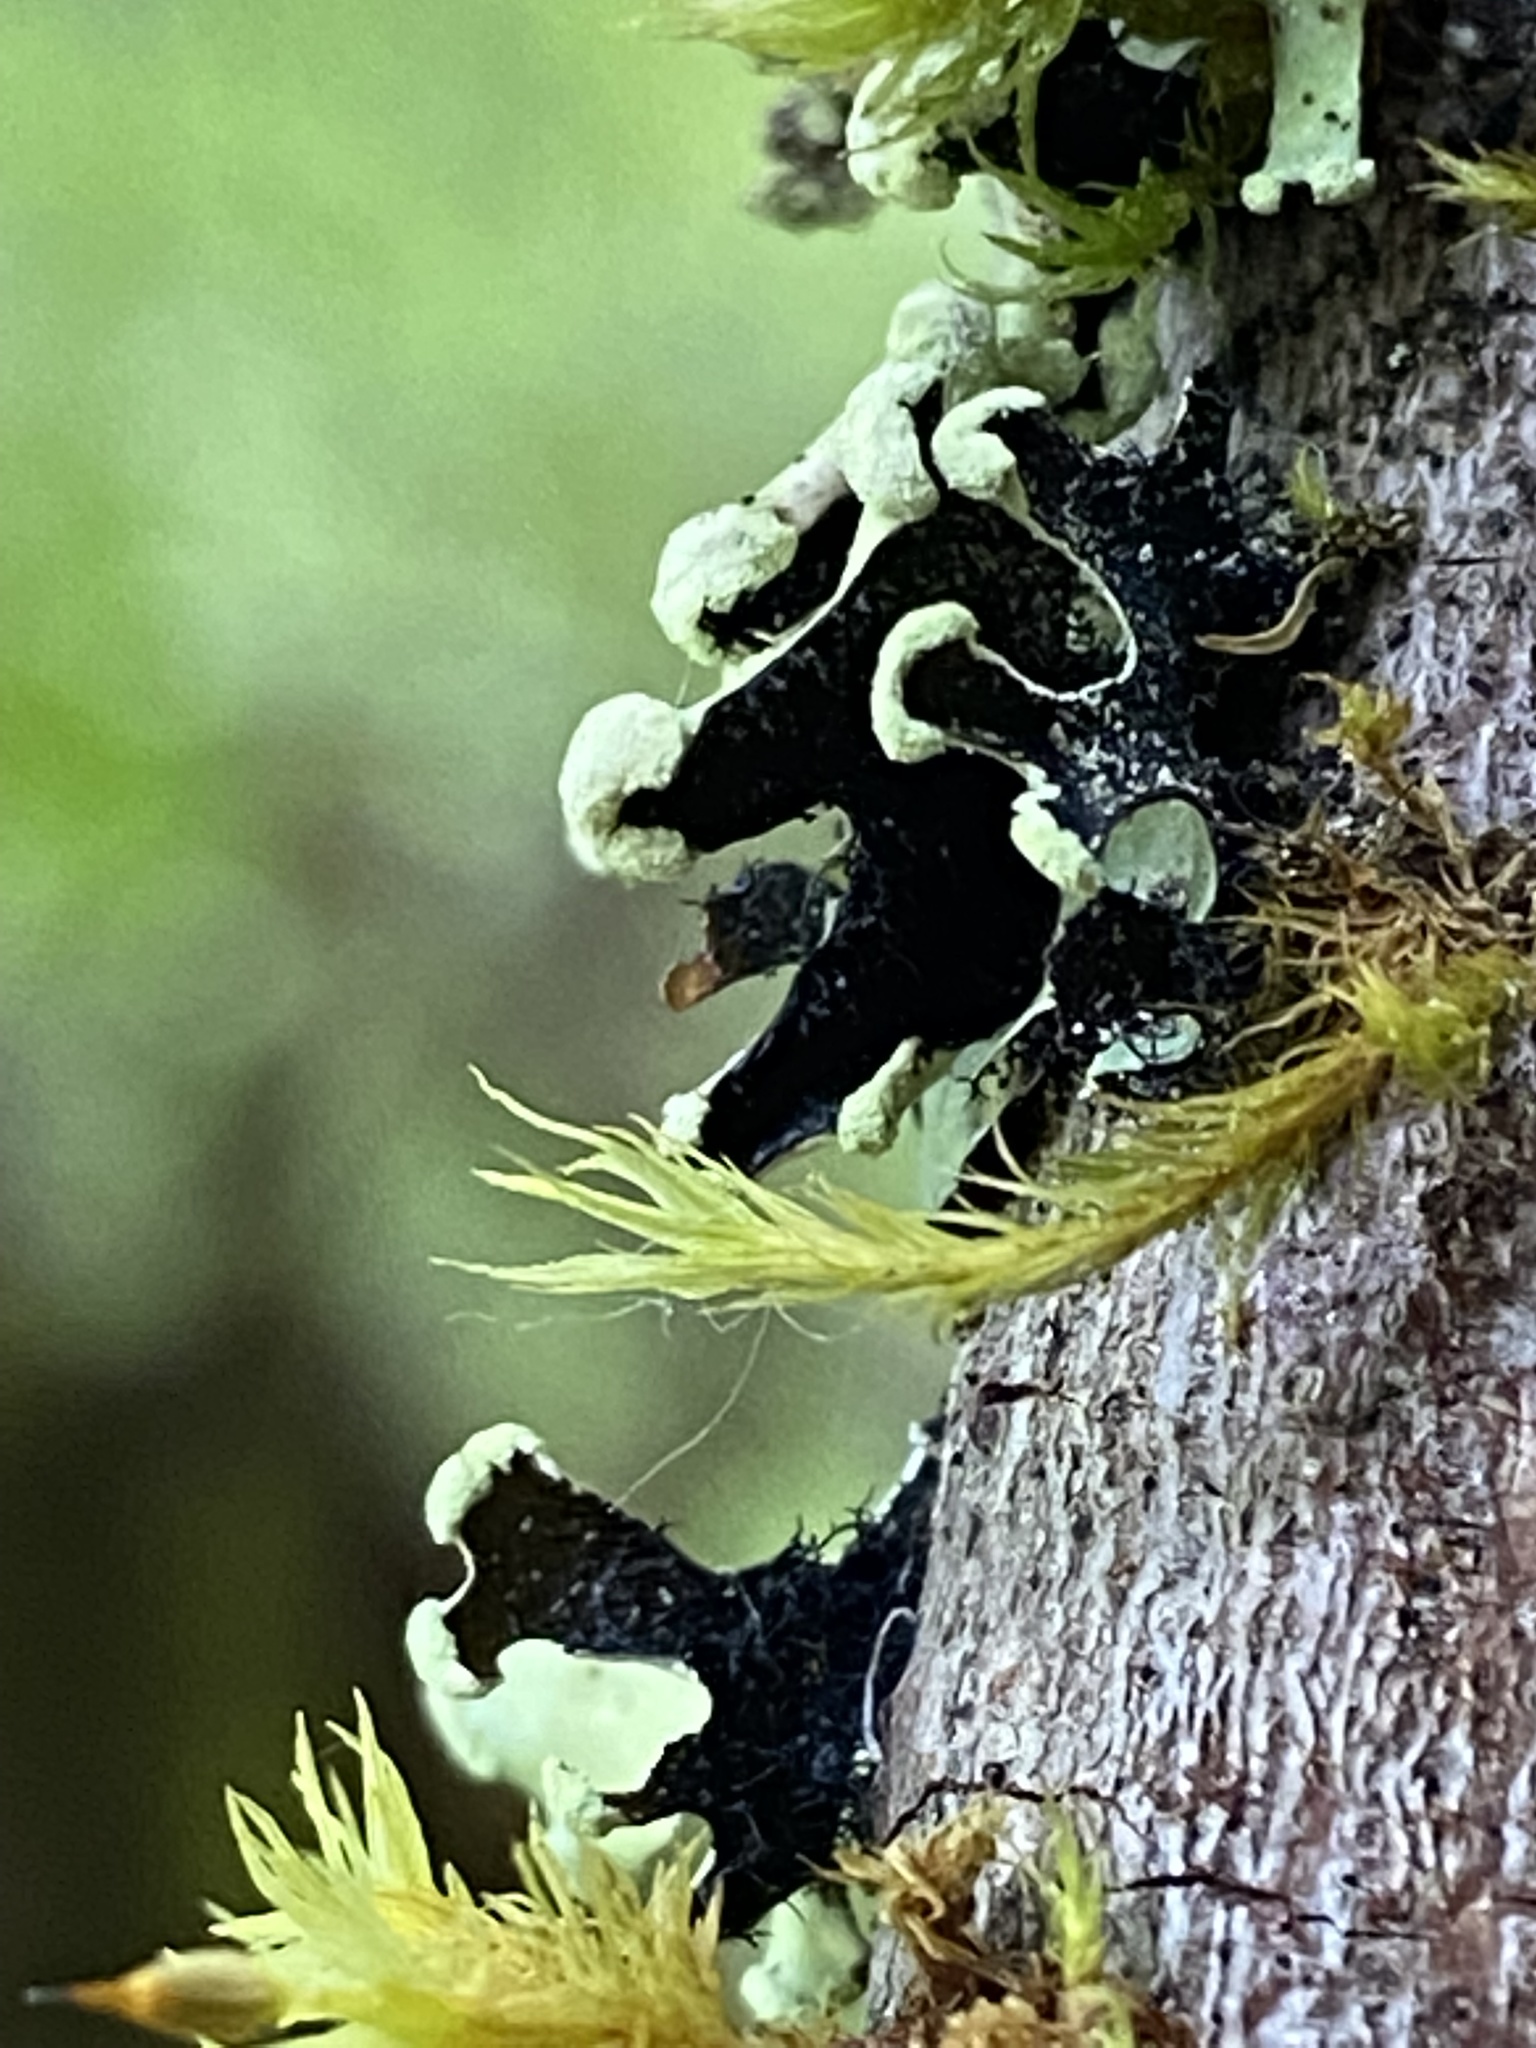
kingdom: Fungi
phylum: Ascomycota
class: Lecanoromycetes
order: Lecanorales
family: Parmeliaceae
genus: Hypotrachyna
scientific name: Hypotrachyna sinuosa
